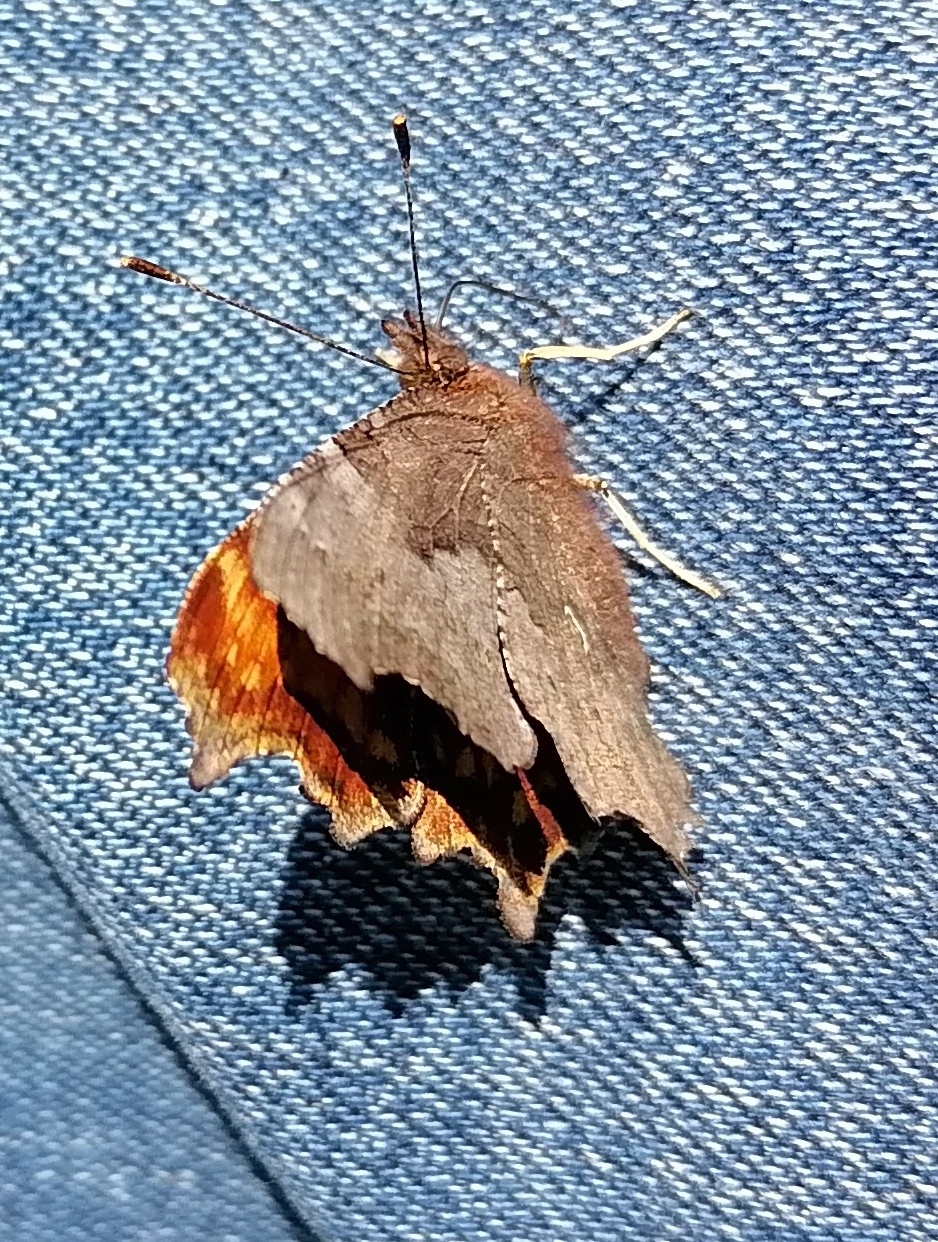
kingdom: Animalia
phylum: Arthropoda
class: Insecta
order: Lepidoptera
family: Nymphalidae
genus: Polygonia
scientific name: Polygonia c-album
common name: Comma
